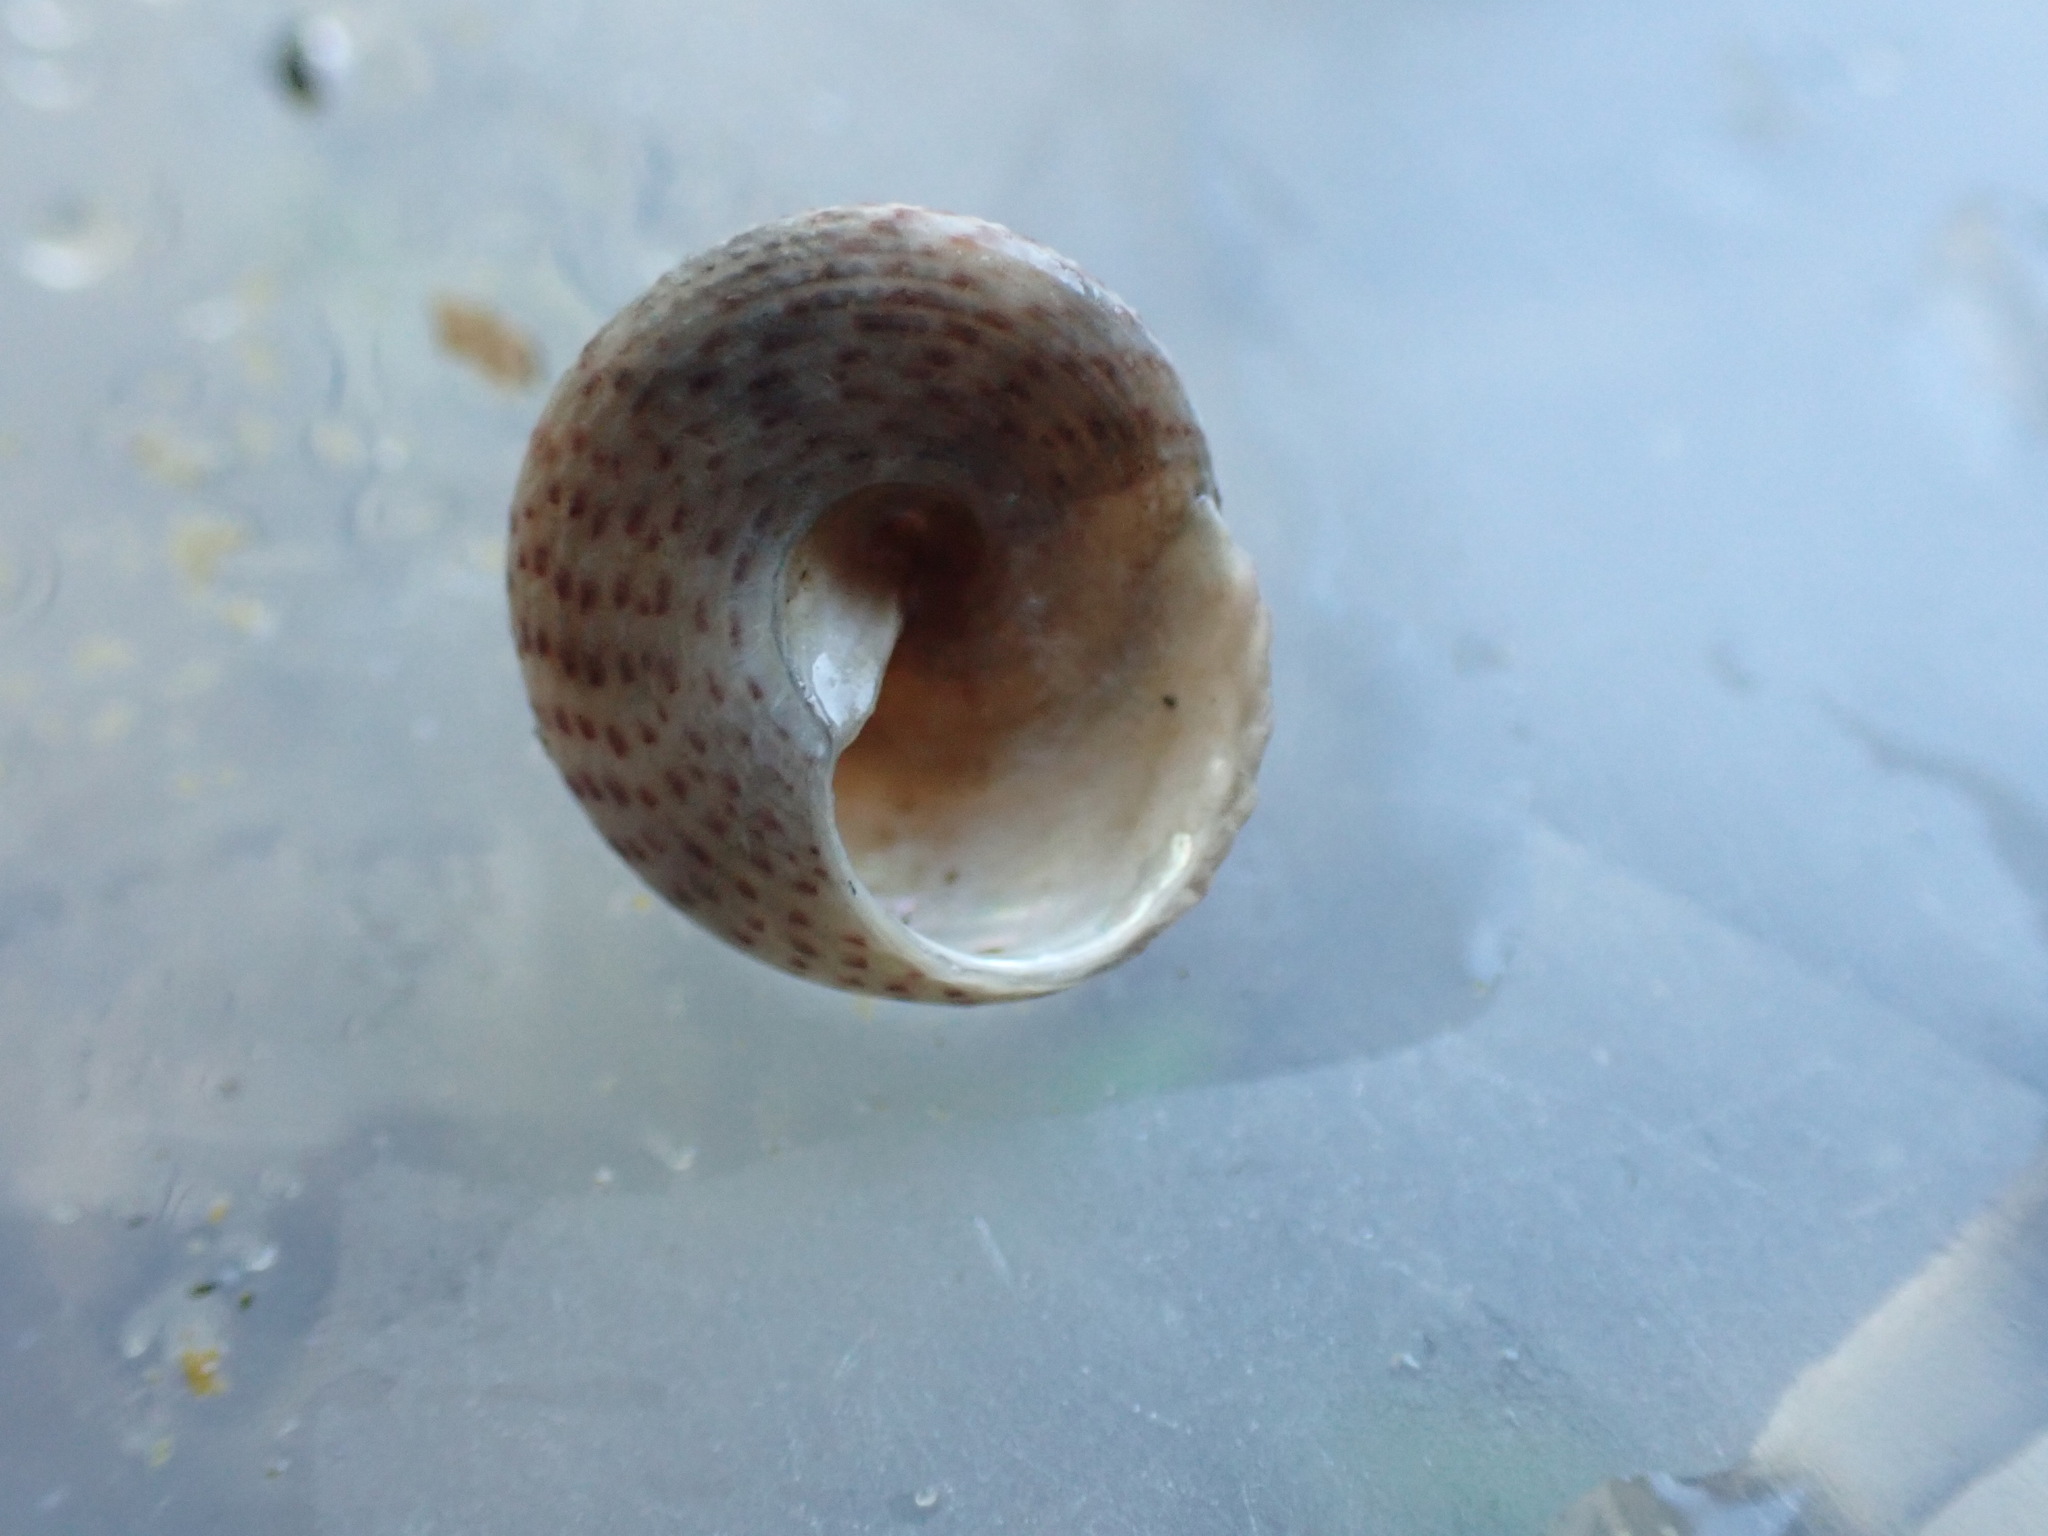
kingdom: Animalia
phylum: Mollusca
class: Gastropoda
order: Trochida
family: Trochidae
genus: Coelotrochus
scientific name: Coelotrochus tiaratus
